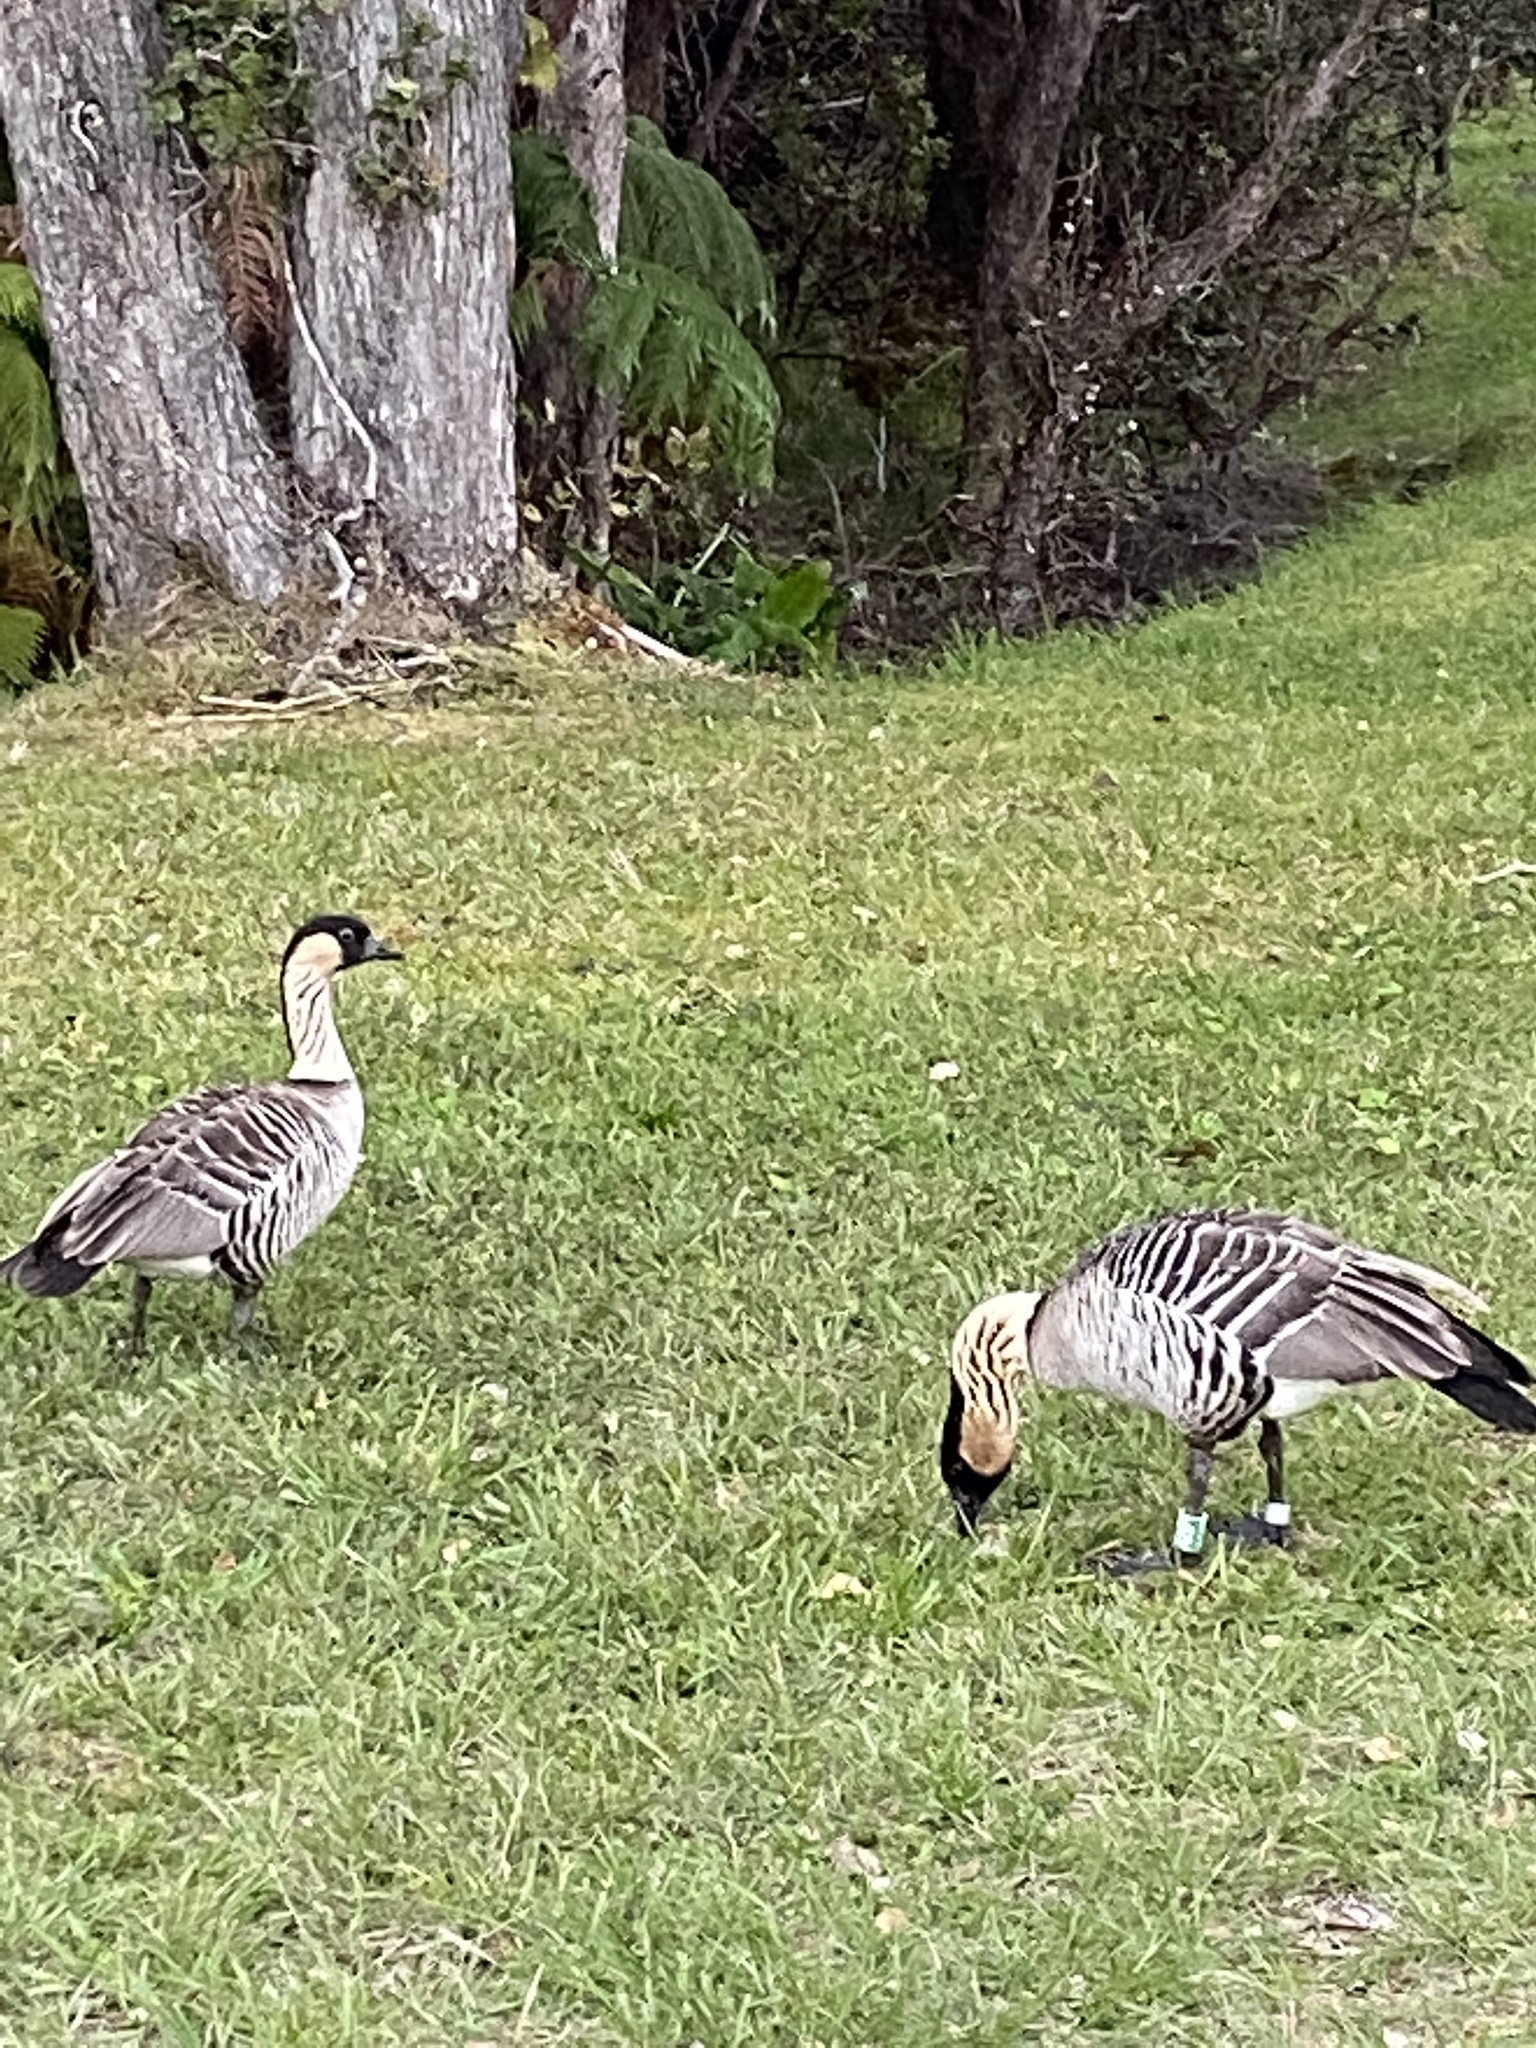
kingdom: Animalia
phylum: Chordata
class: Aves
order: Anseriformes
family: Anatidae
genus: Branta
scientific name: Branta sandvicensis
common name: Nene
